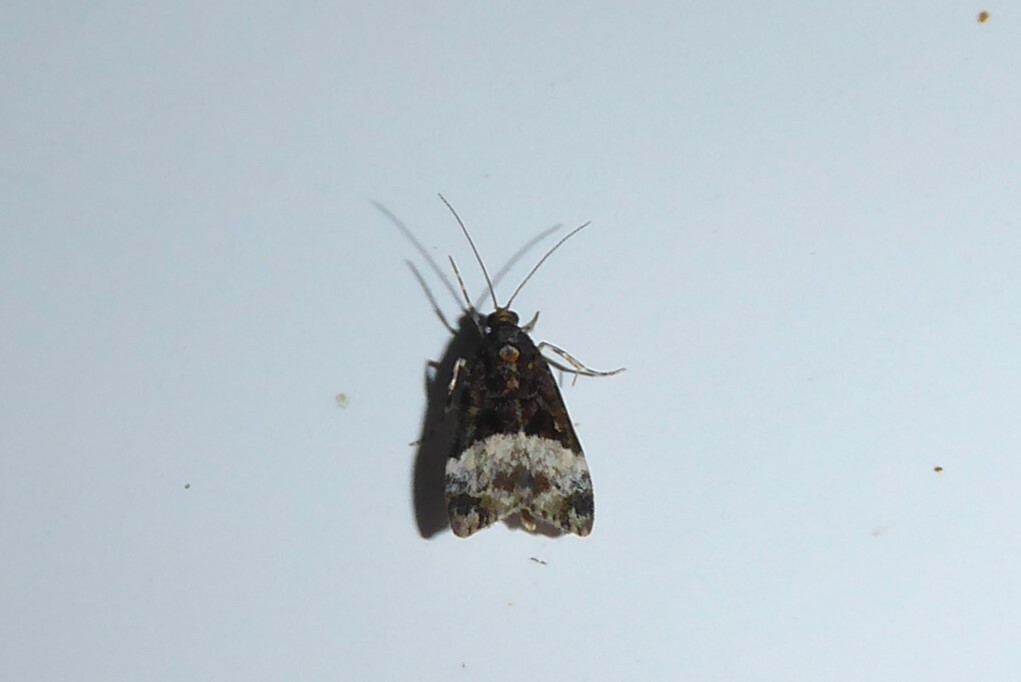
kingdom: Animalia
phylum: Arthropoda
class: Insecta
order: Lepidoptera
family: Crambidae
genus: Scoparia
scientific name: Scoparia minusculalis
